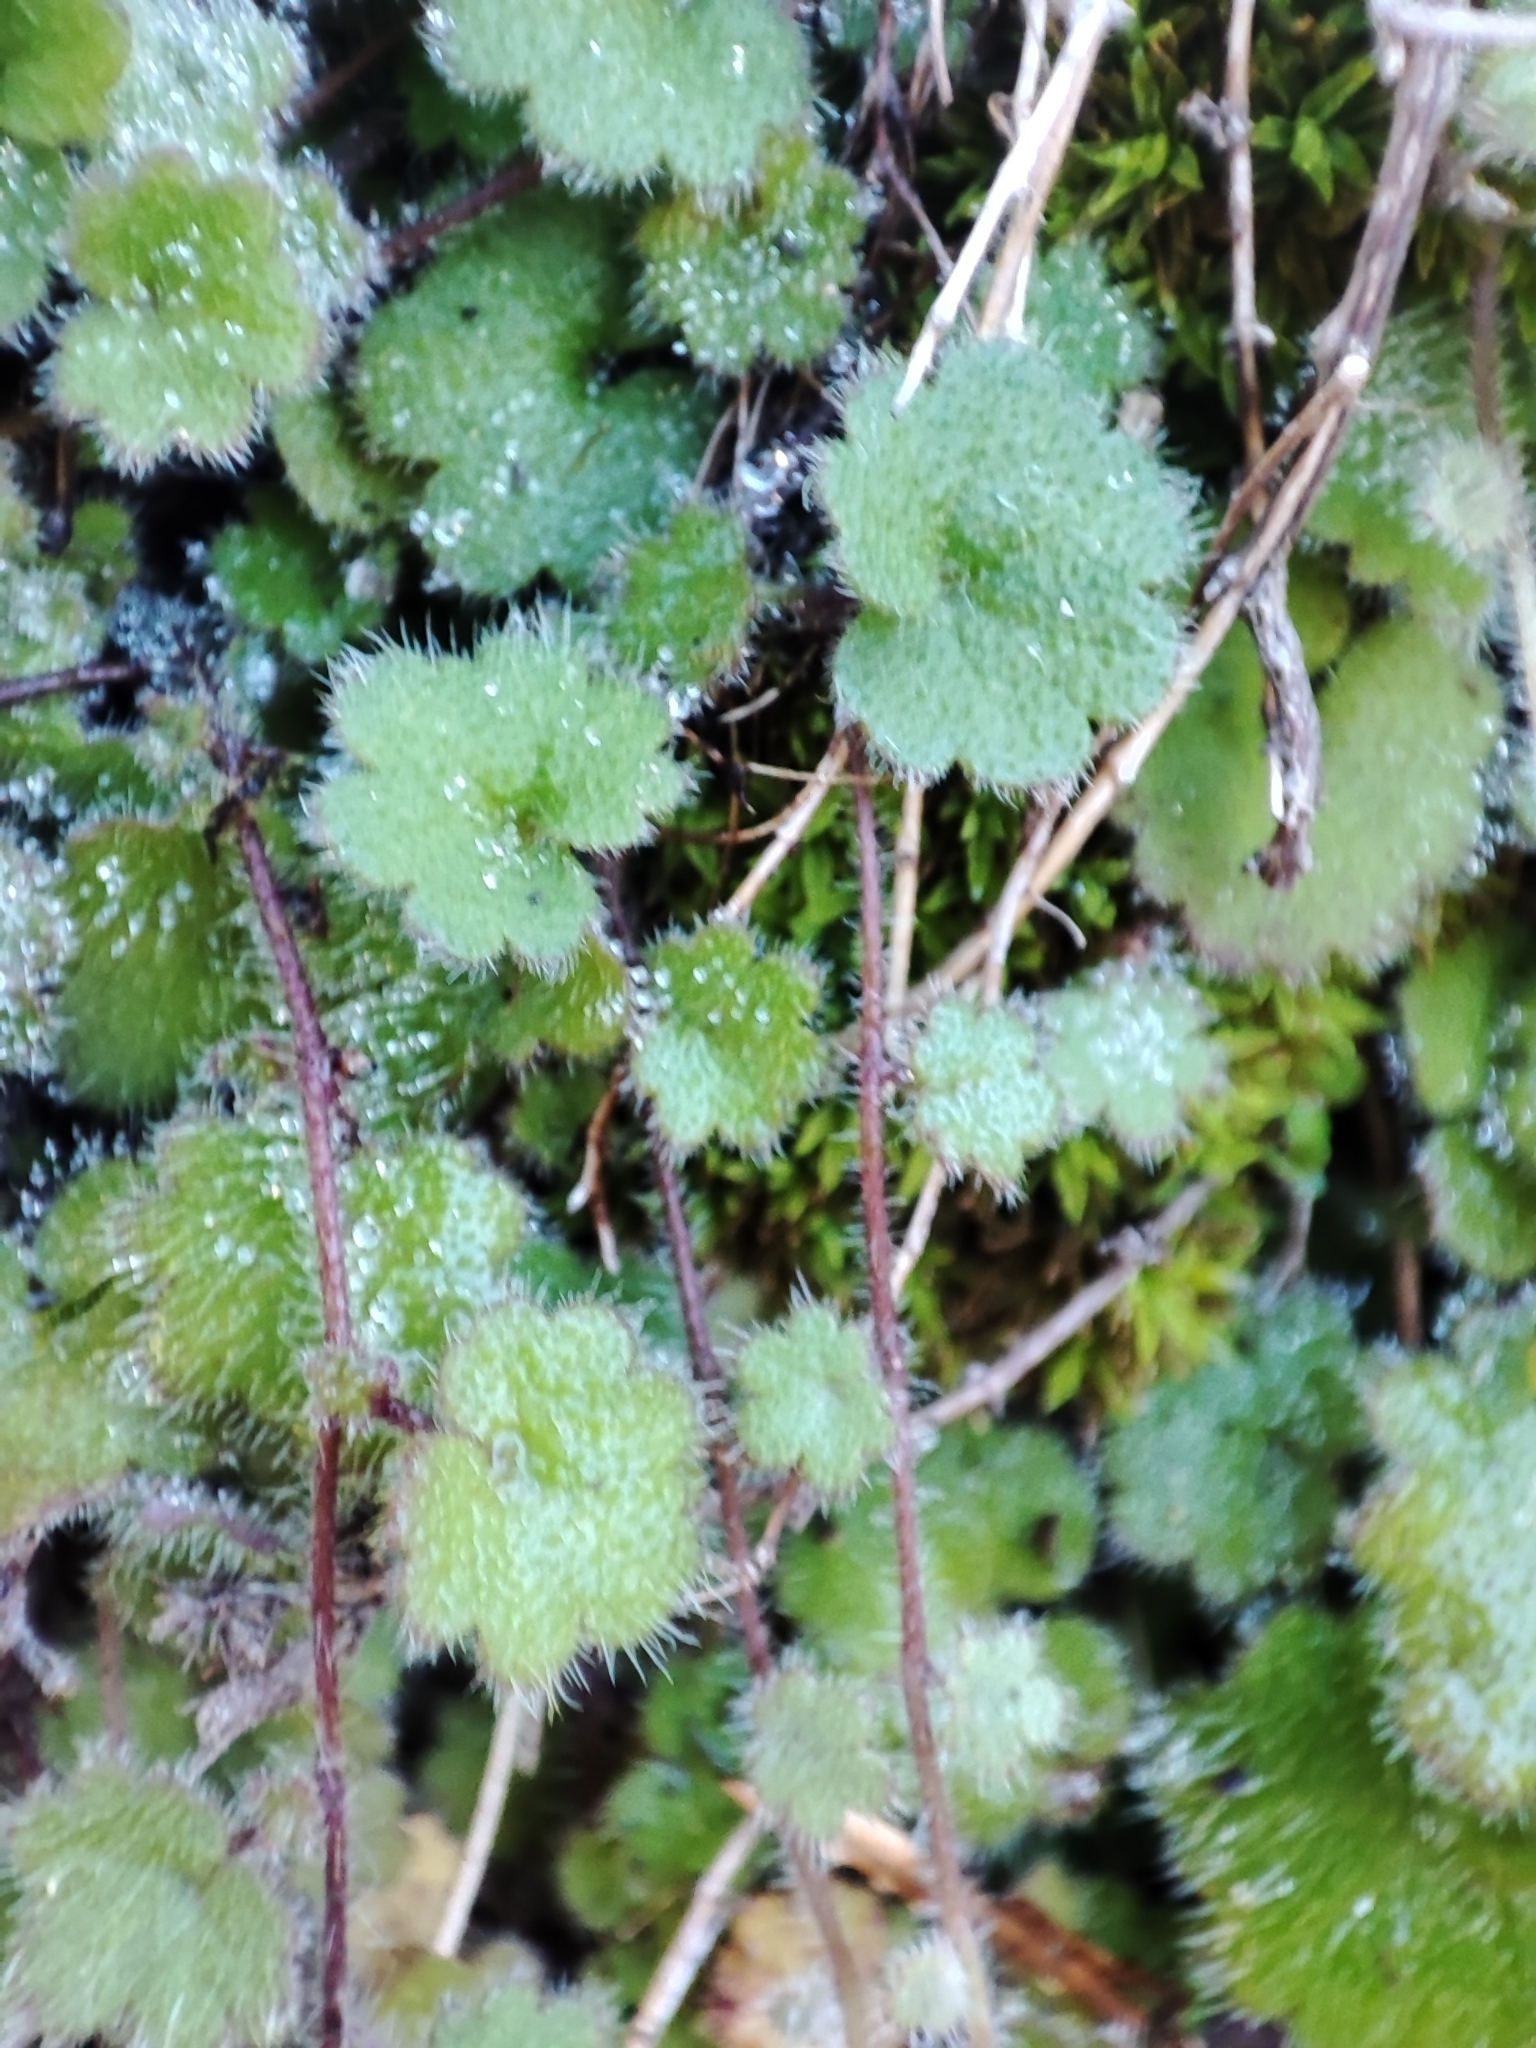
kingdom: Plantae
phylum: Tracheophyta
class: Magnoliopsida
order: Lamiales
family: Plantaginaceae
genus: Sibthorpia
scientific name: Sibthorpia africana
